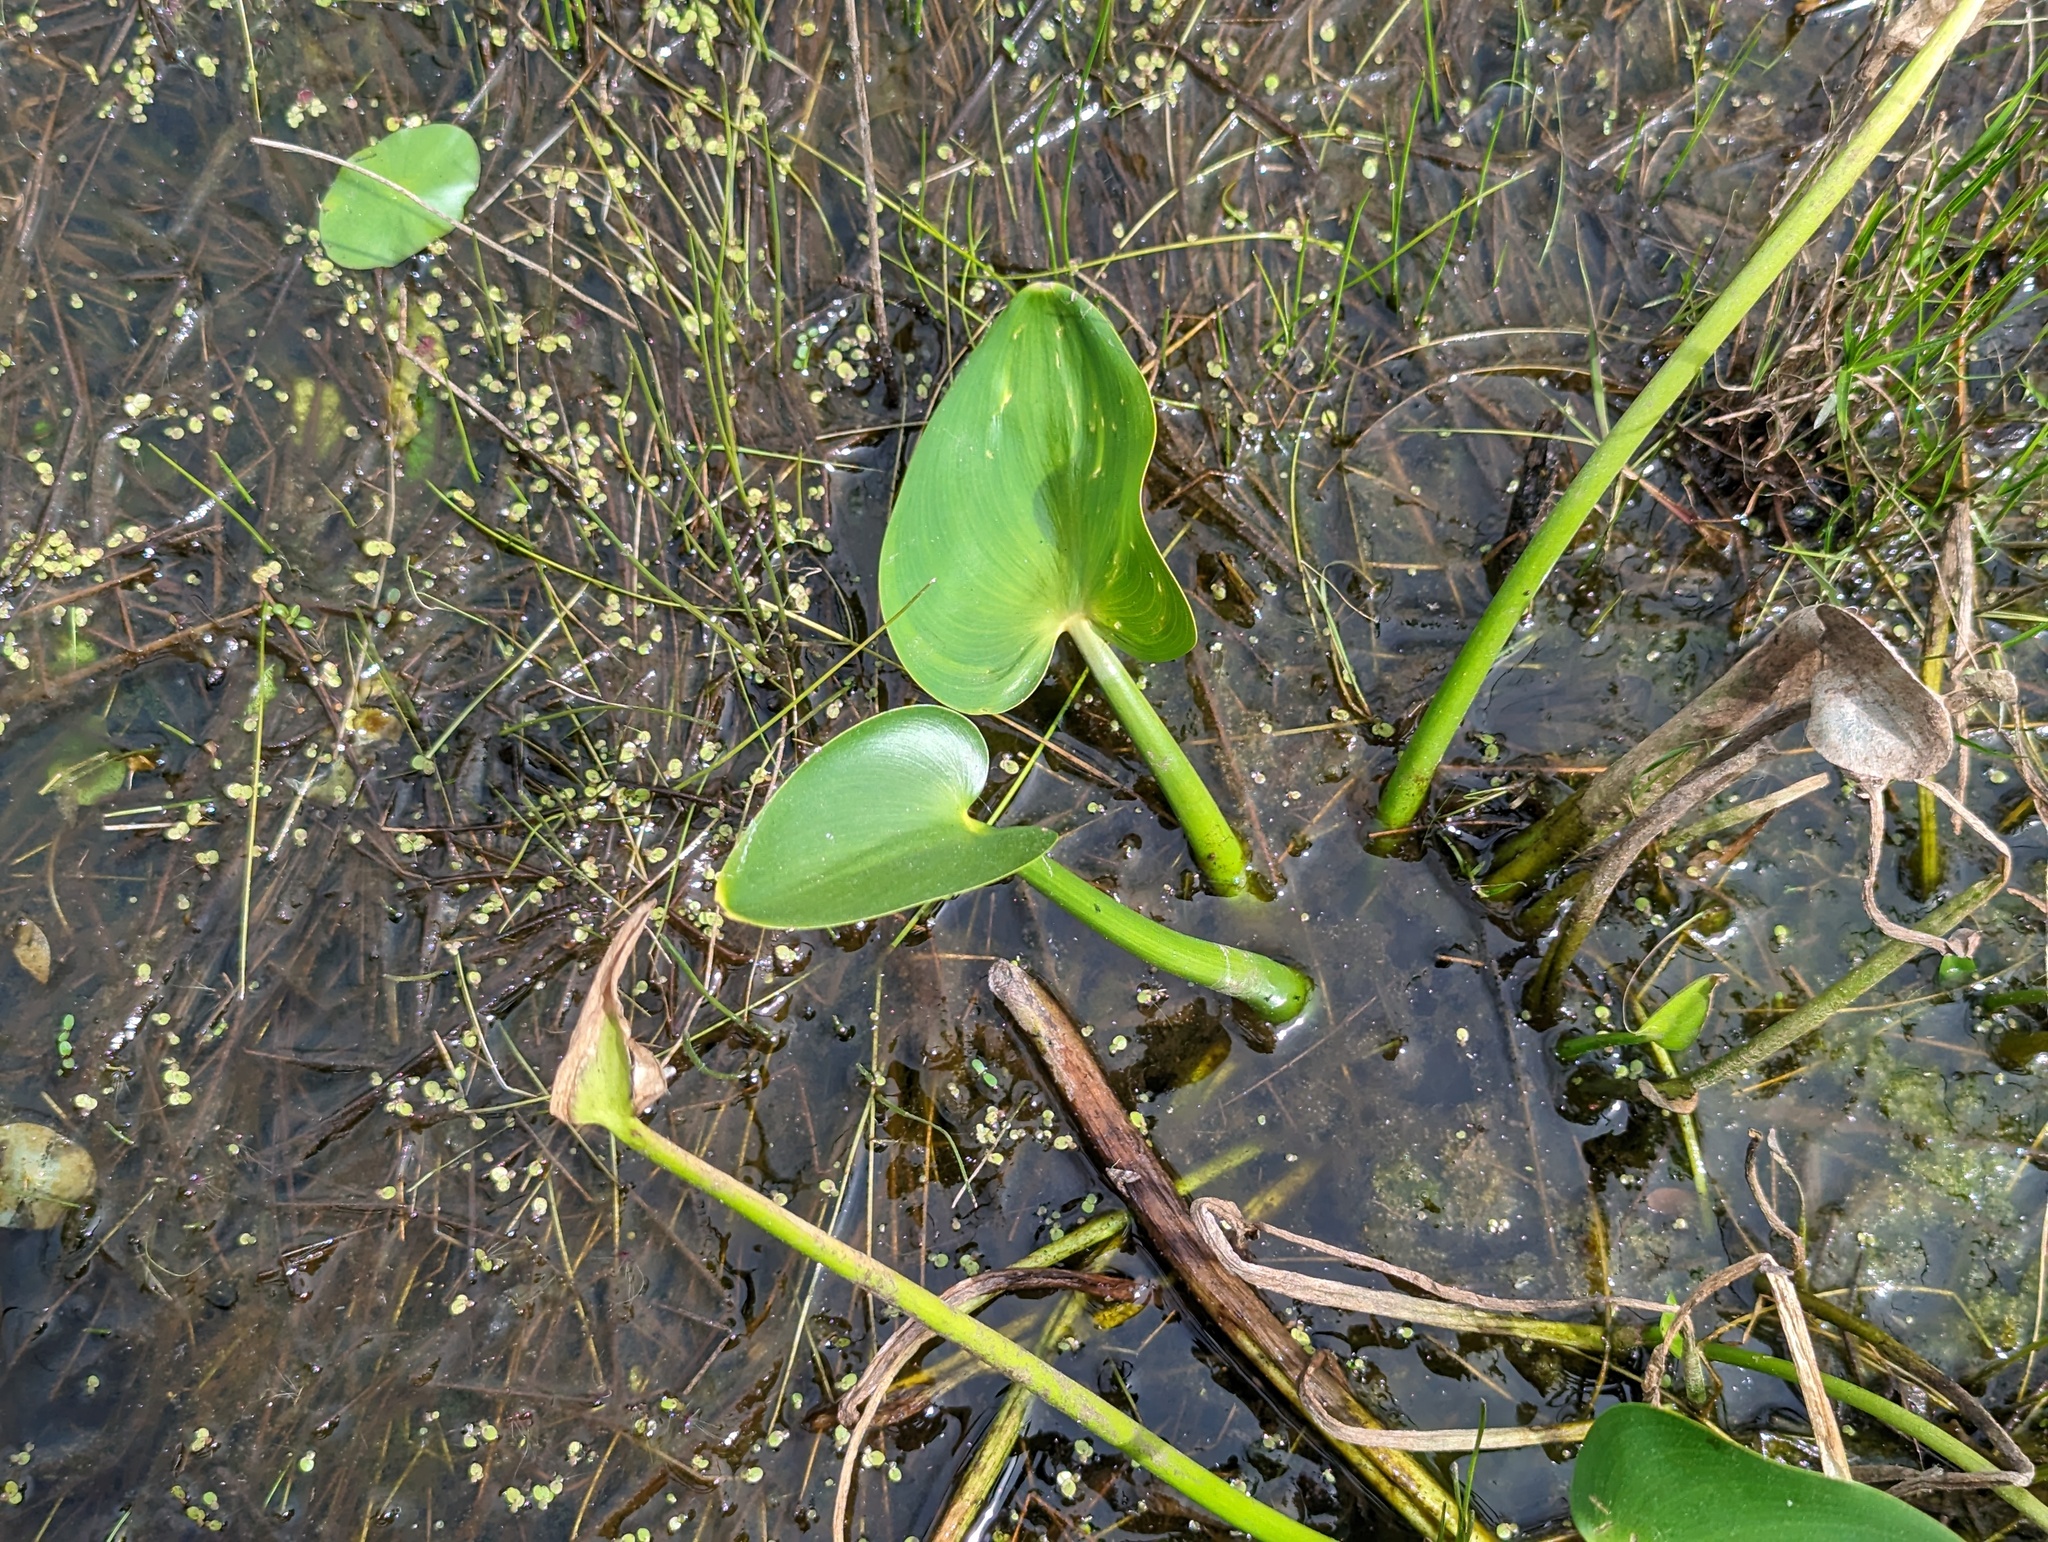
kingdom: Plantae
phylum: Tracheophyta
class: Liliopsida
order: Commelinales
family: Pontederiaceae
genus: Pontederia
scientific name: Pontederia cordata
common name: Pickerelweed
